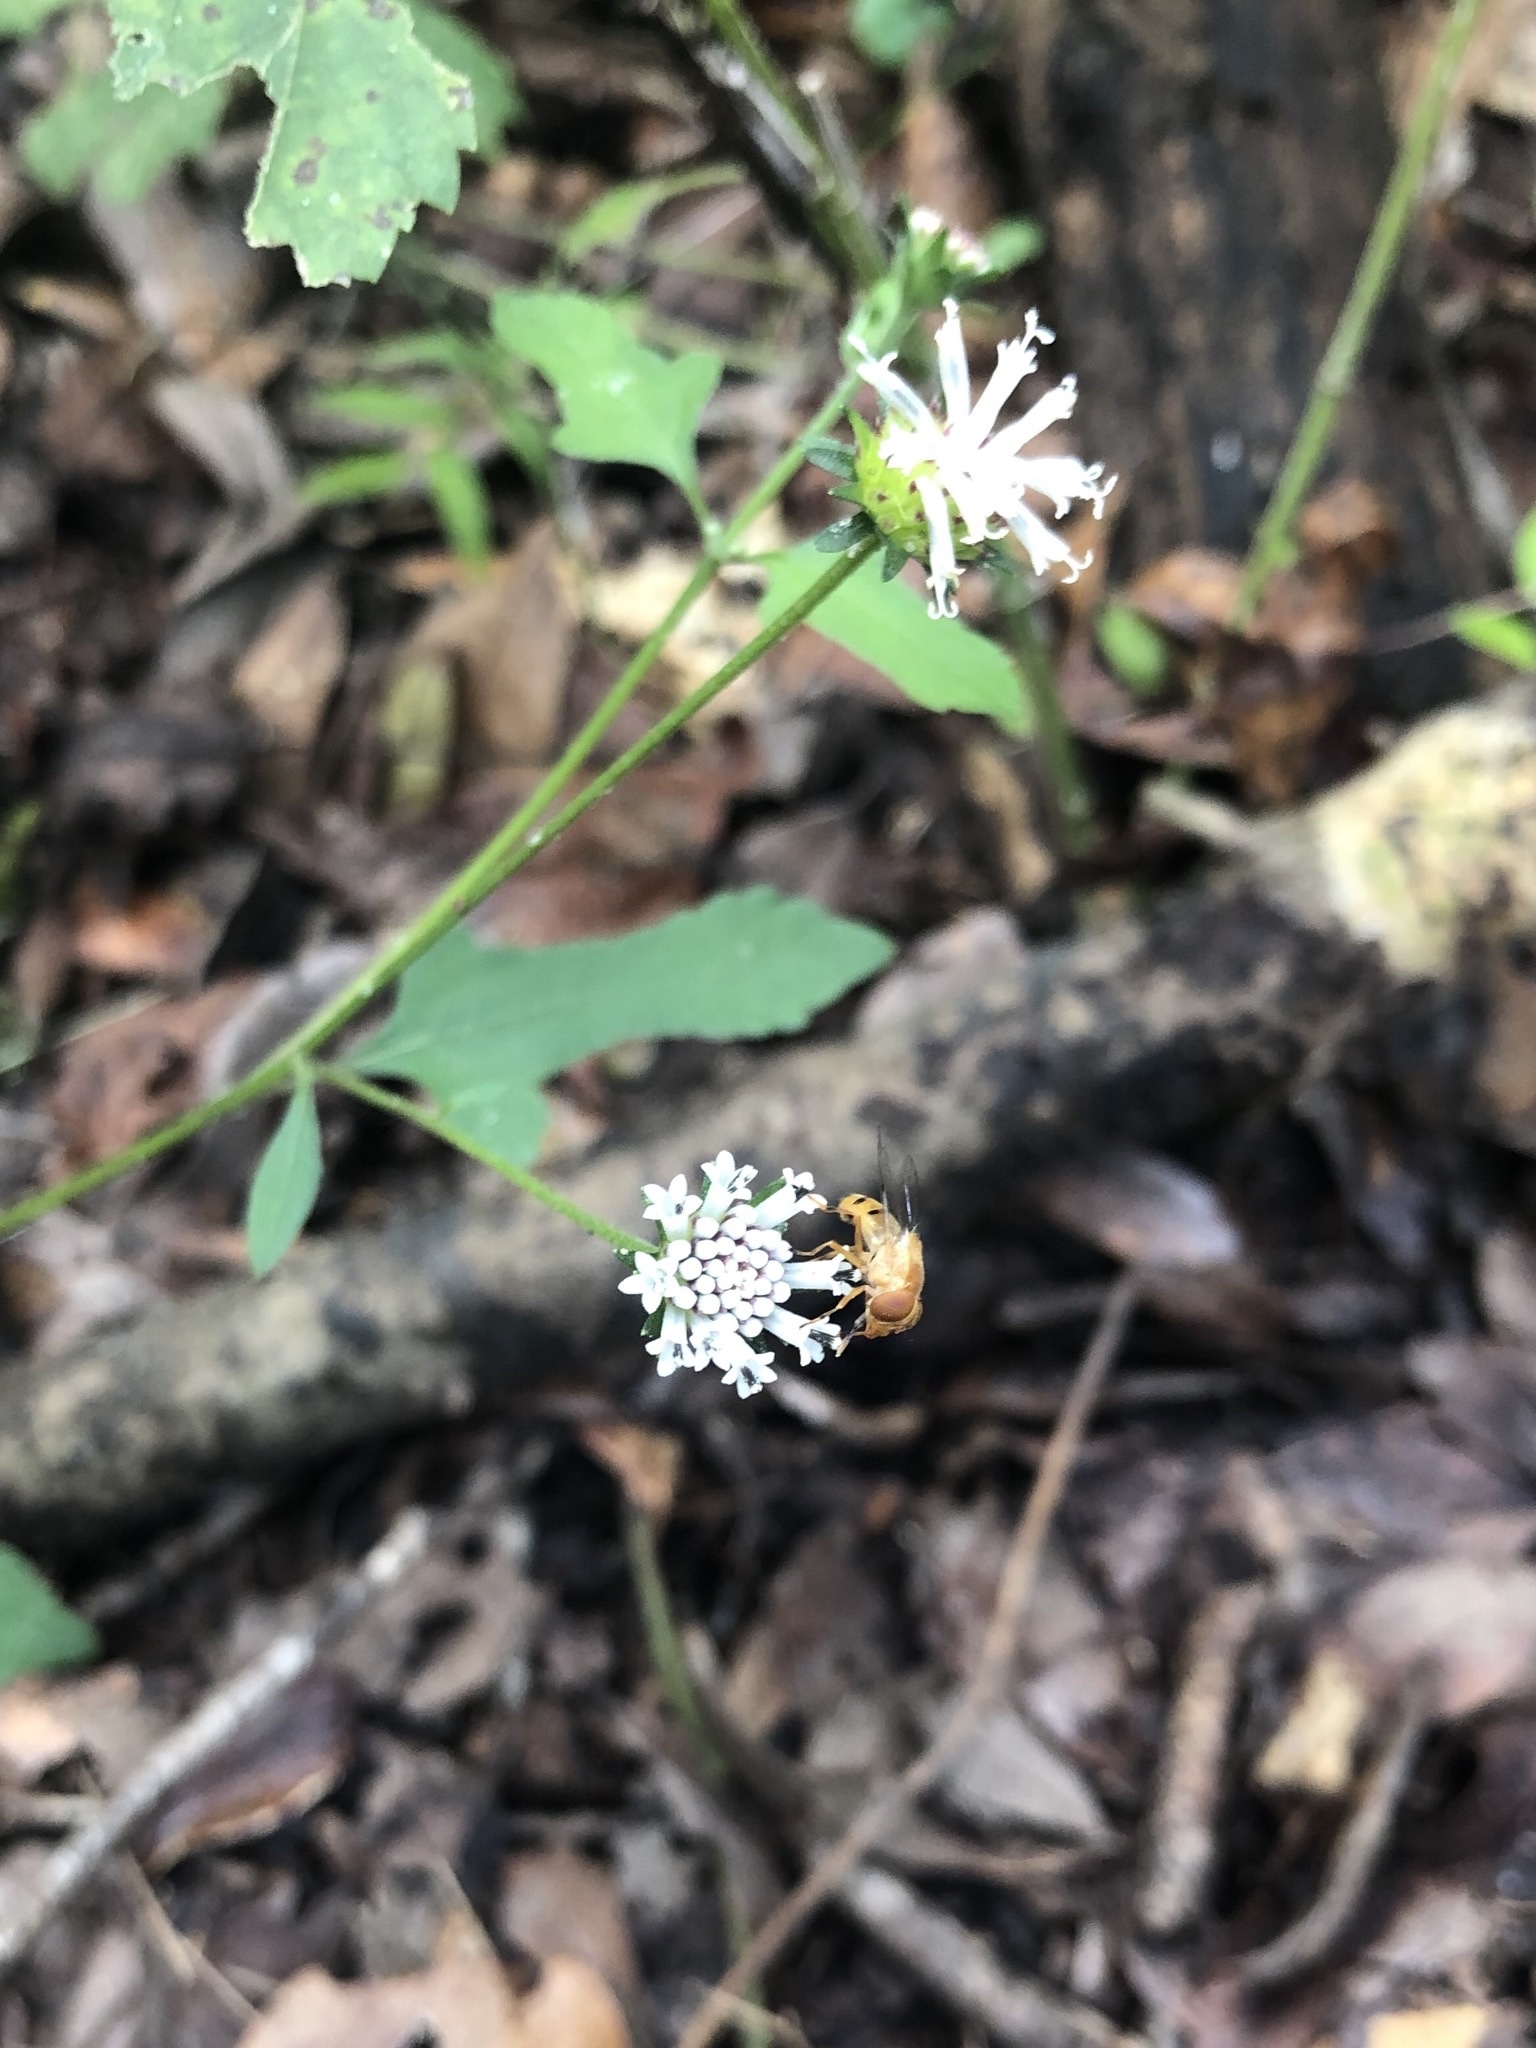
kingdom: Plantae
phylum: Tracheophyta
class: Magnoliopsida
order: Asterales
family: Asteraceae
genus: Melanthera
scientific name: Melanthera nivea
